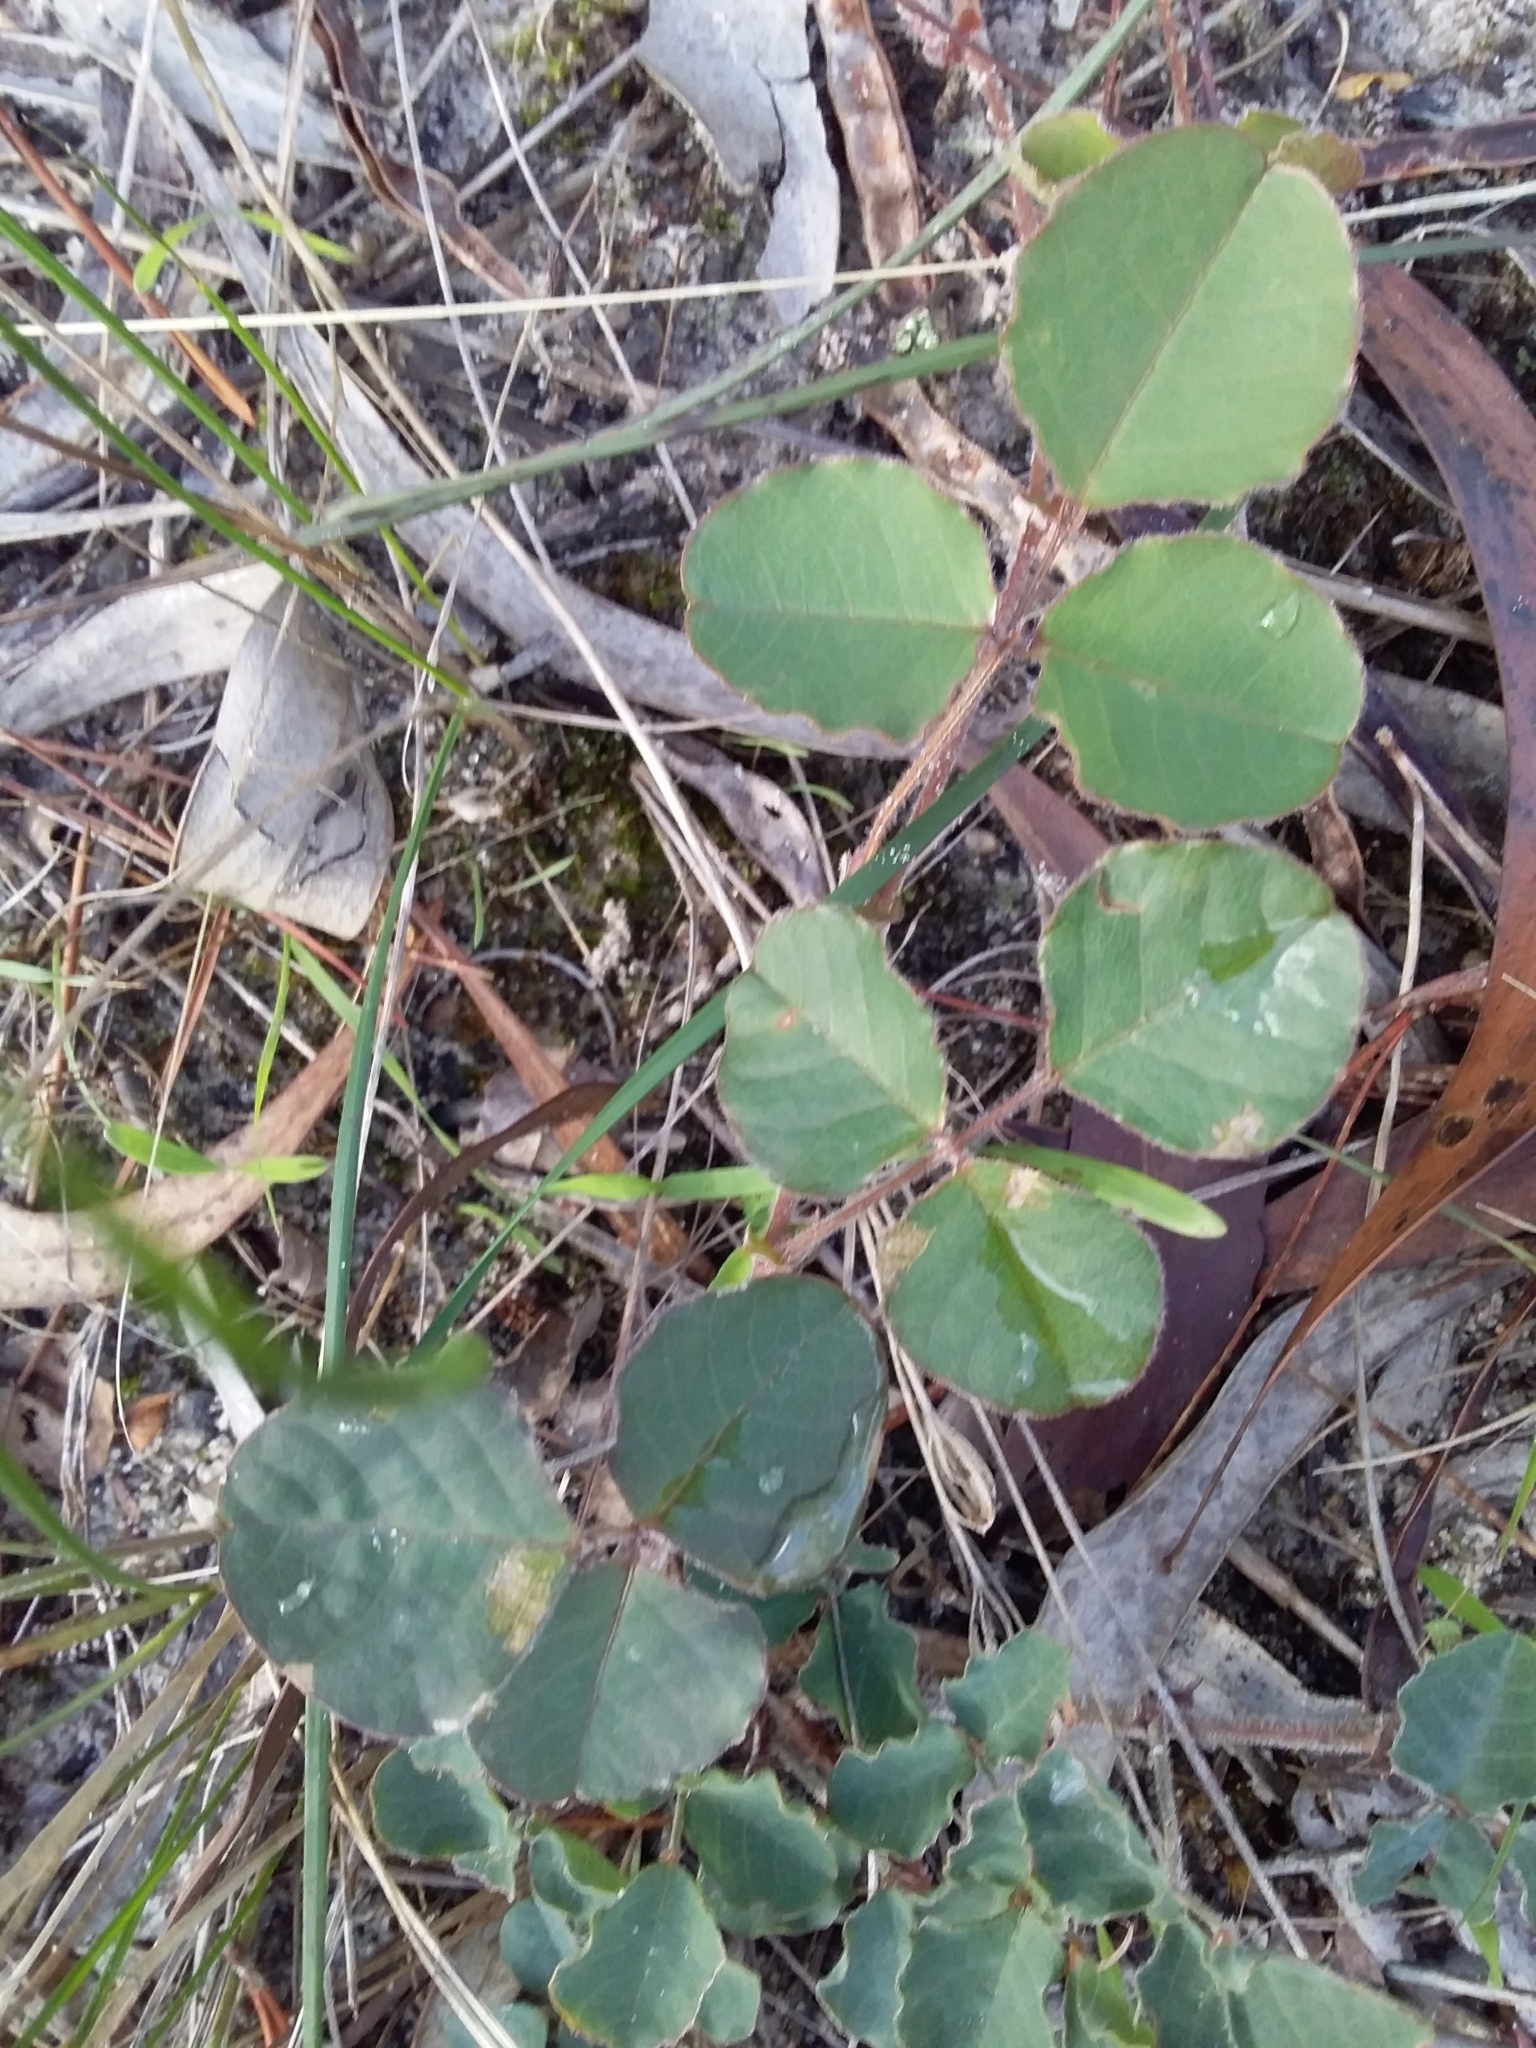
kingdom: Plantae
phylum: Tracheophyta
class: Magnoliopsida
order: Fabales
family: Fabaceae
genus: Kennedia
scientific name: Kennedia prostrata
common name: Running-postman
